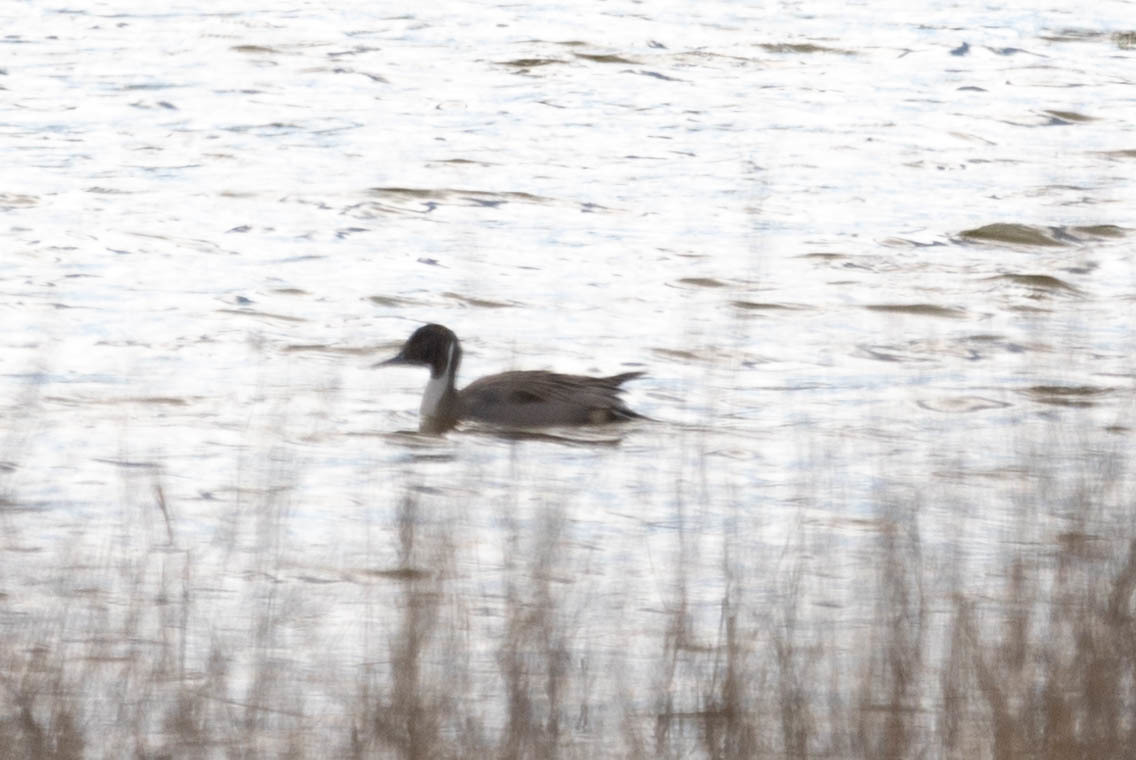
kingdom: Animalia
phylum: Chordata
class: Aves
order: Anseriformes
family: Anatidae
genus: Anas
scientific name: Anas acuta
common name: Northern pintail
